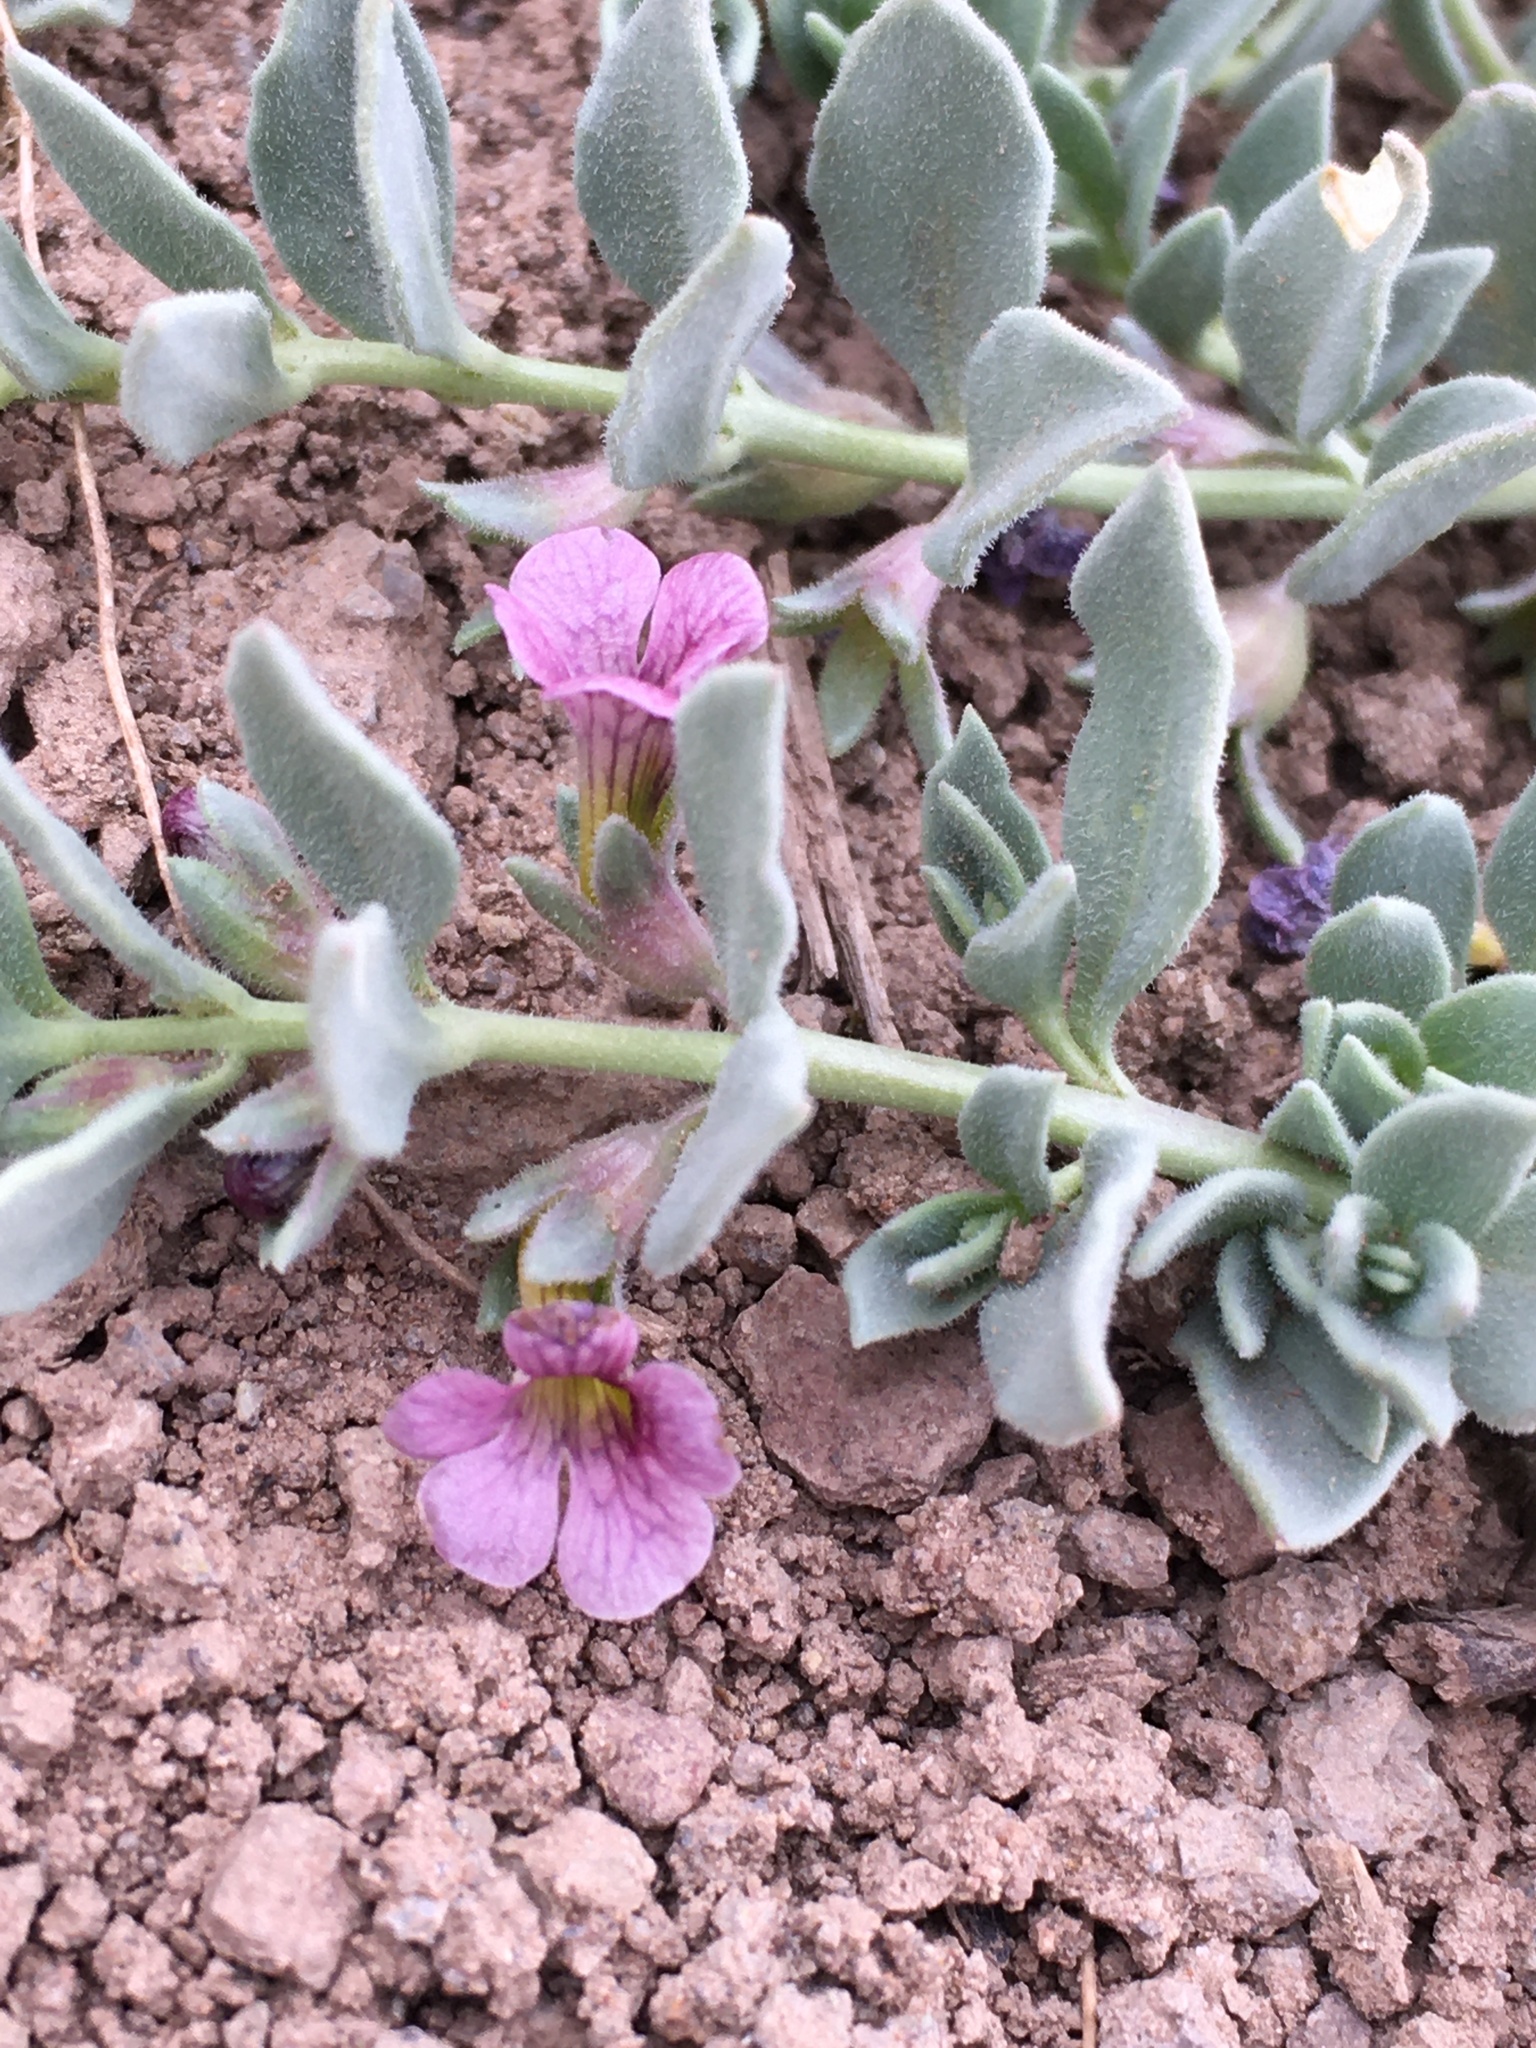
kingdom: Plantae
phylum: Tracheophyta
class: Magnoliopsida
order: Lamiales
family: Plantaginaceae
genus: Melosperma
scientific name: Melosperma andicola
